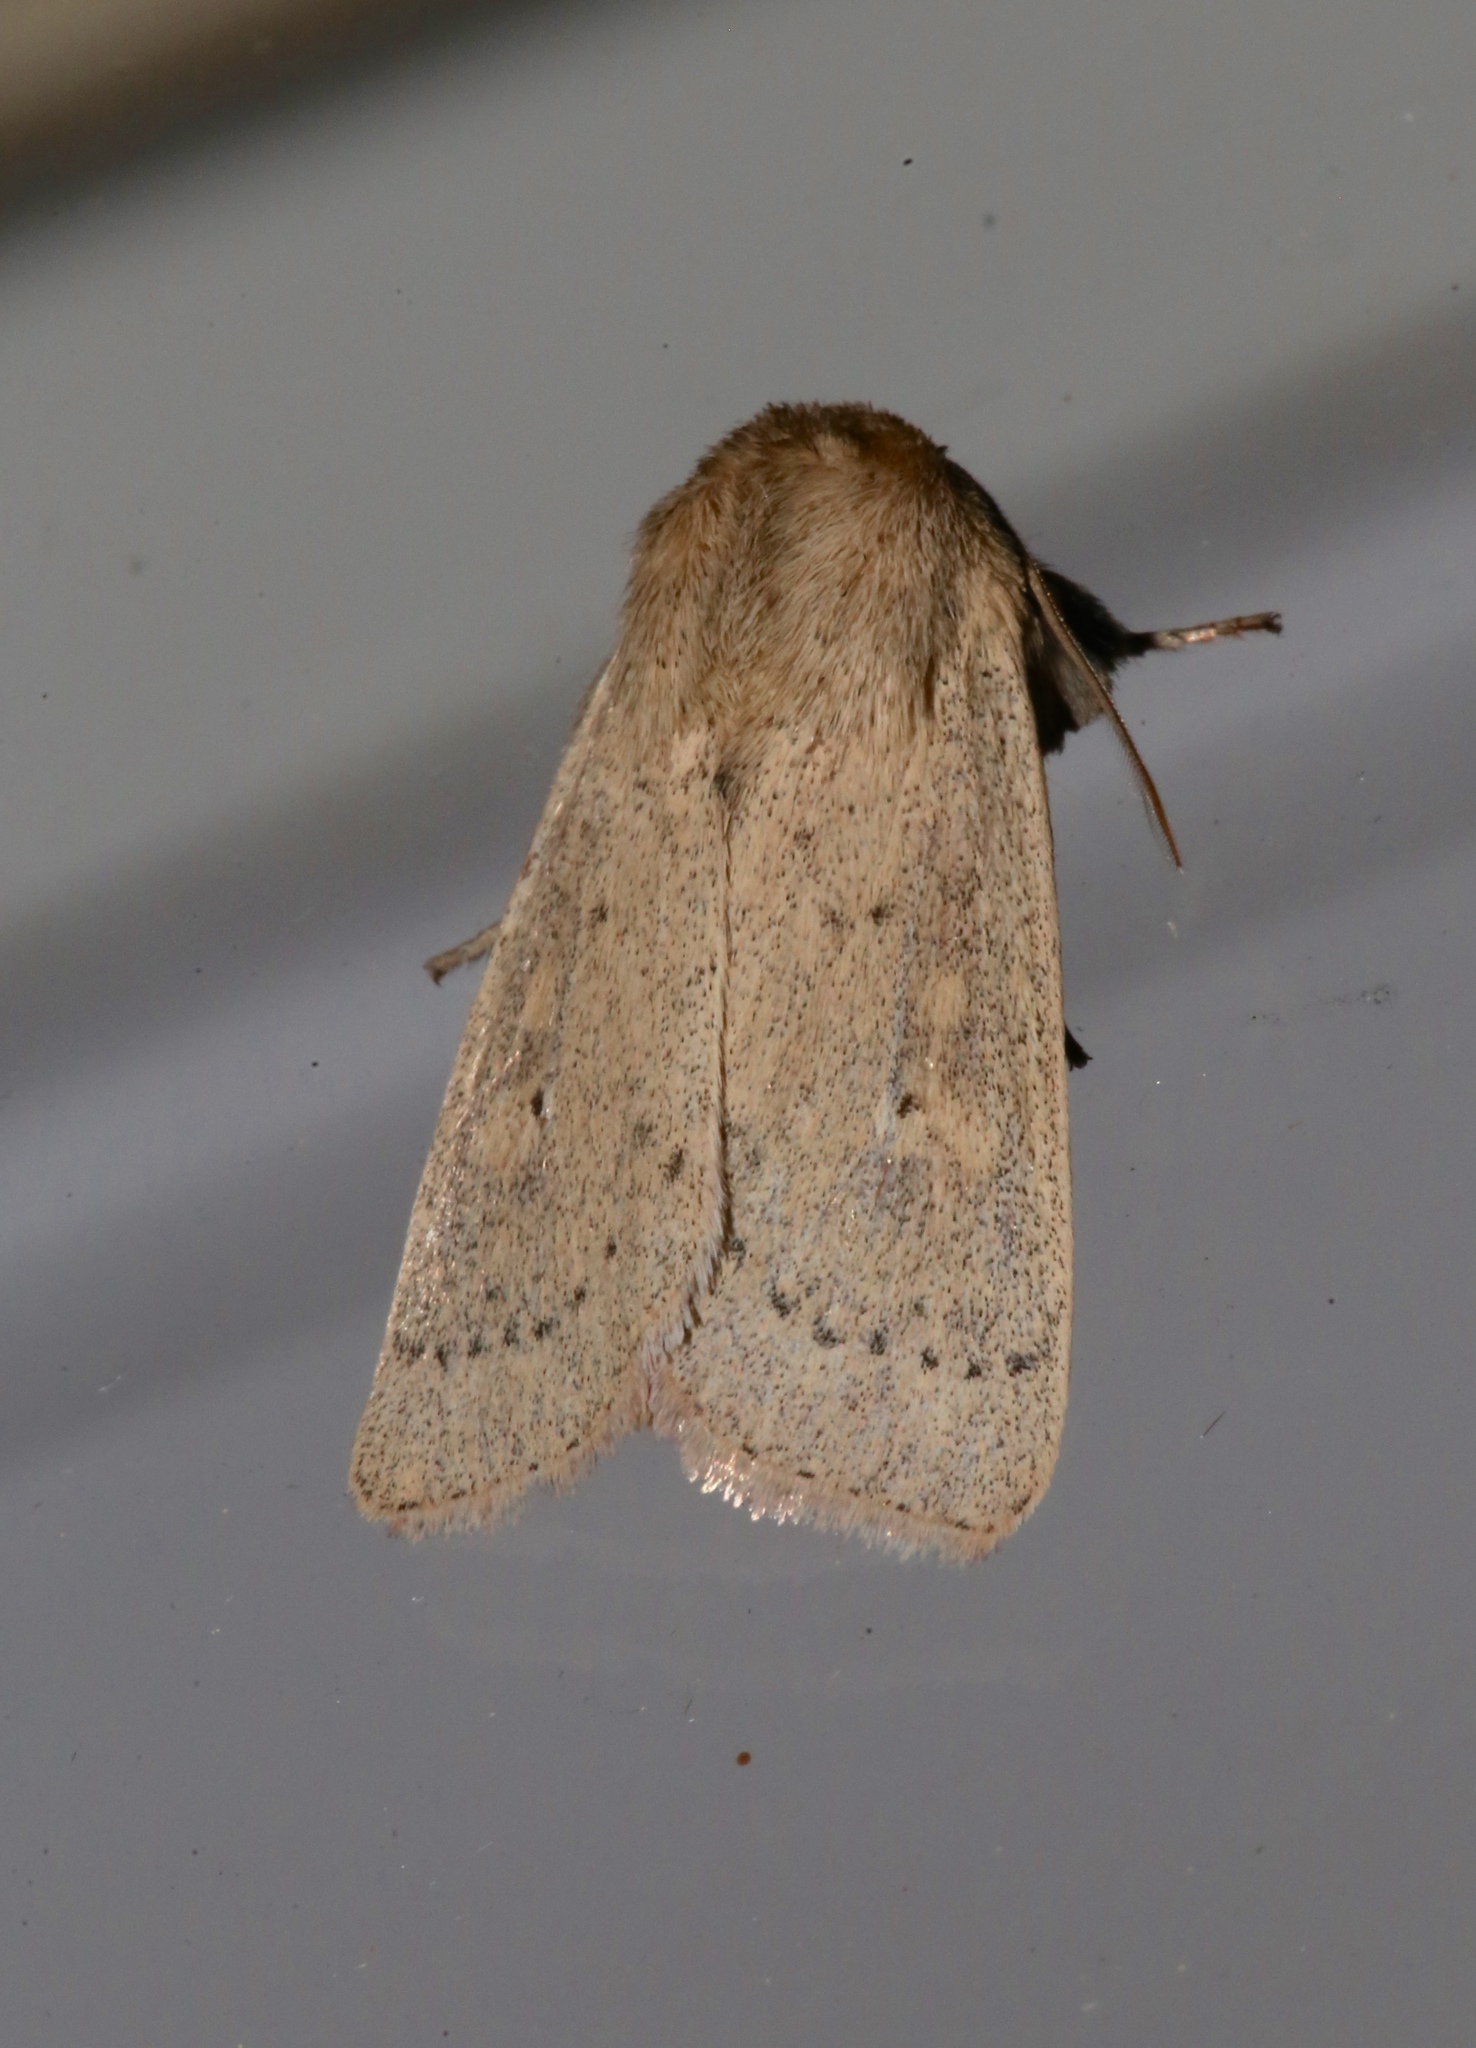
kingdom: Animalia
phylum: Arthropoda
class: Insecta
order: Lepidoptera
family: Noctuidae
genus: Leucania
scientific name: Leucania ursula
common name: Ursula wainscot
